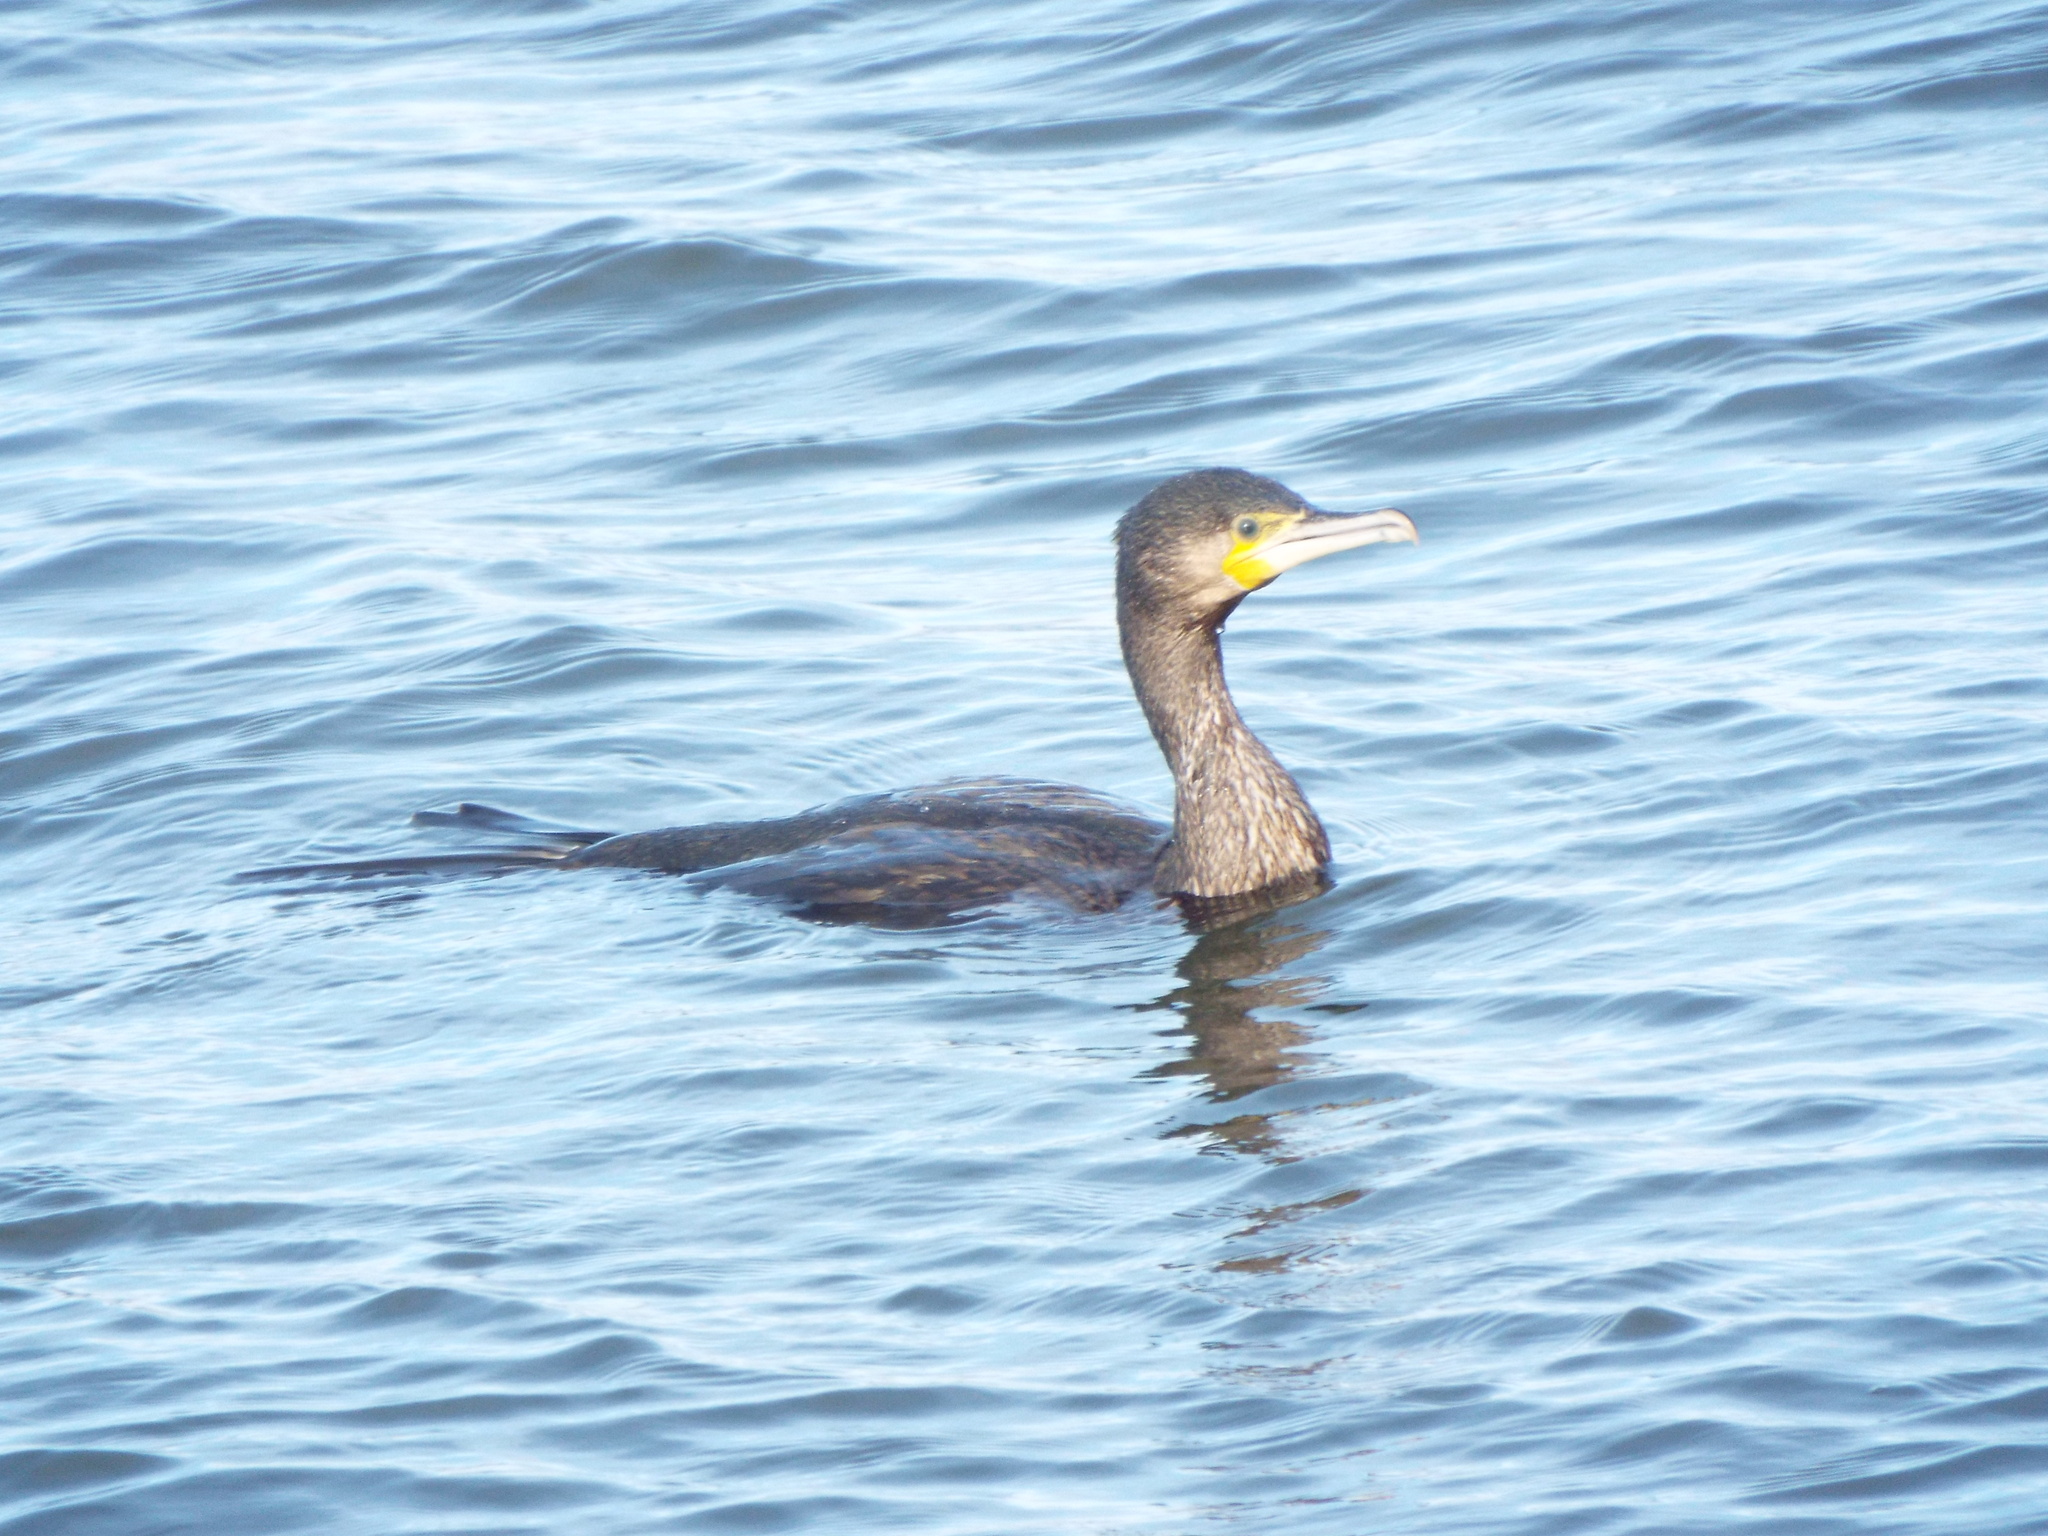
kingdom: Animalia
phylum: Chordata
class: Aves
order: Suliformes
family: Phalacrocoracidae
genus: Phalacrocorax
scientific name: Phalacrocorax carbo
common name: Great cormorant
